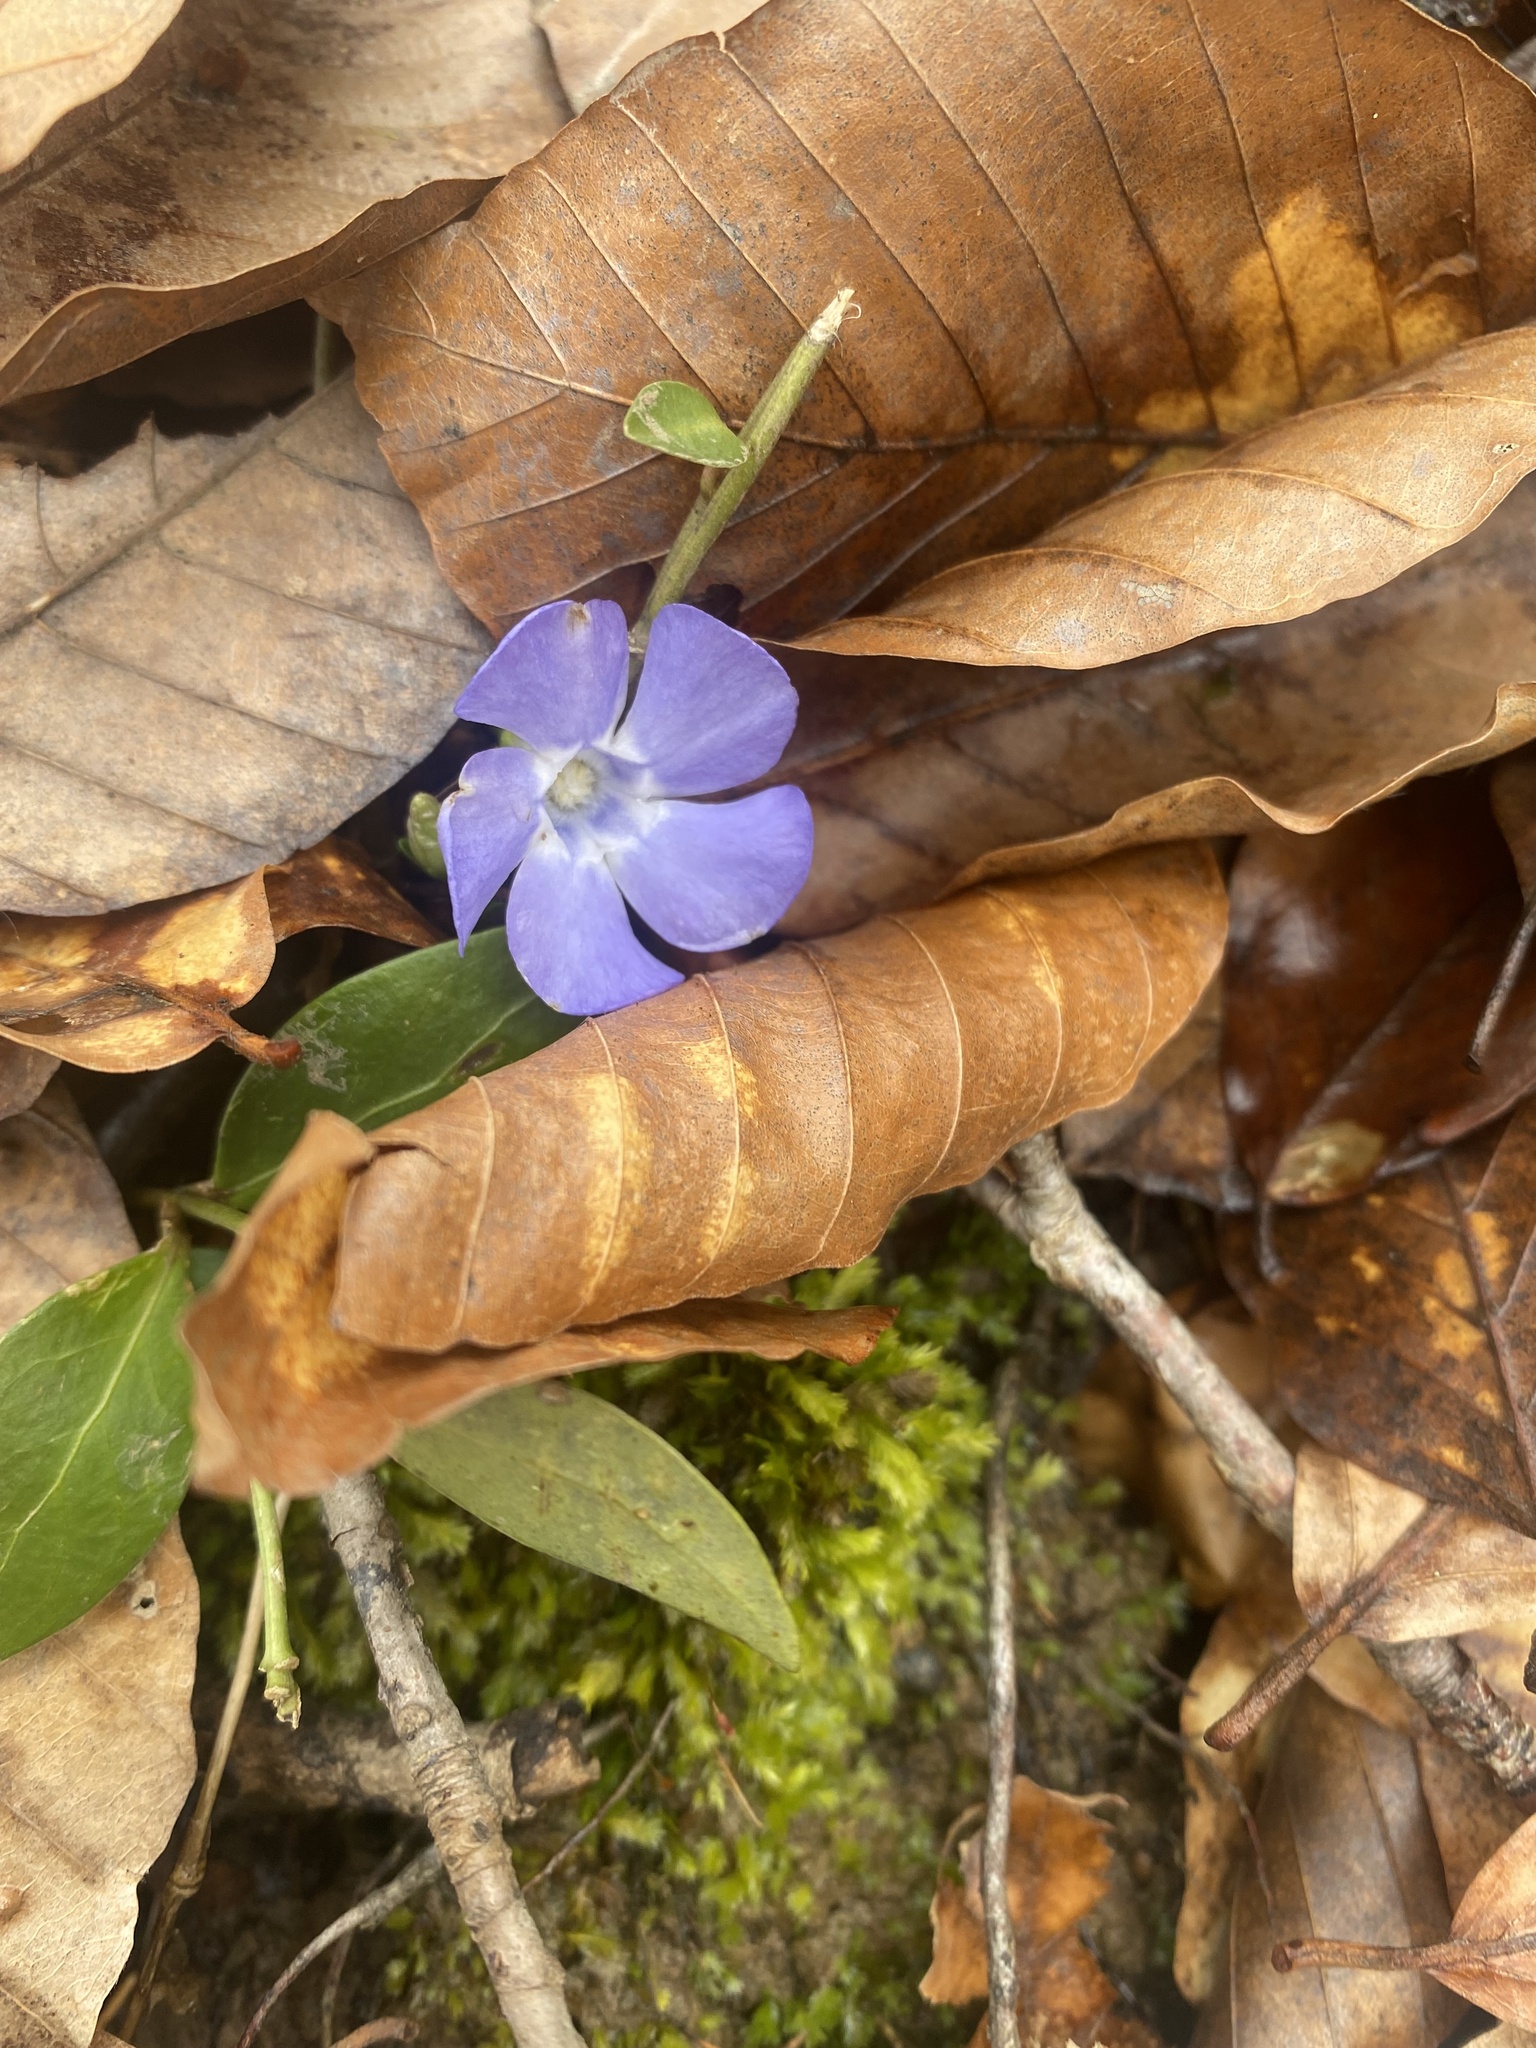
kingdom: Plantae
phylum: Tracheophyta
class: Magnoliopsida
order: Gentianales
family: Apocynaceae
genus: Vinca
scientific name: Vinca minor
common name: Lesser periwinkle
